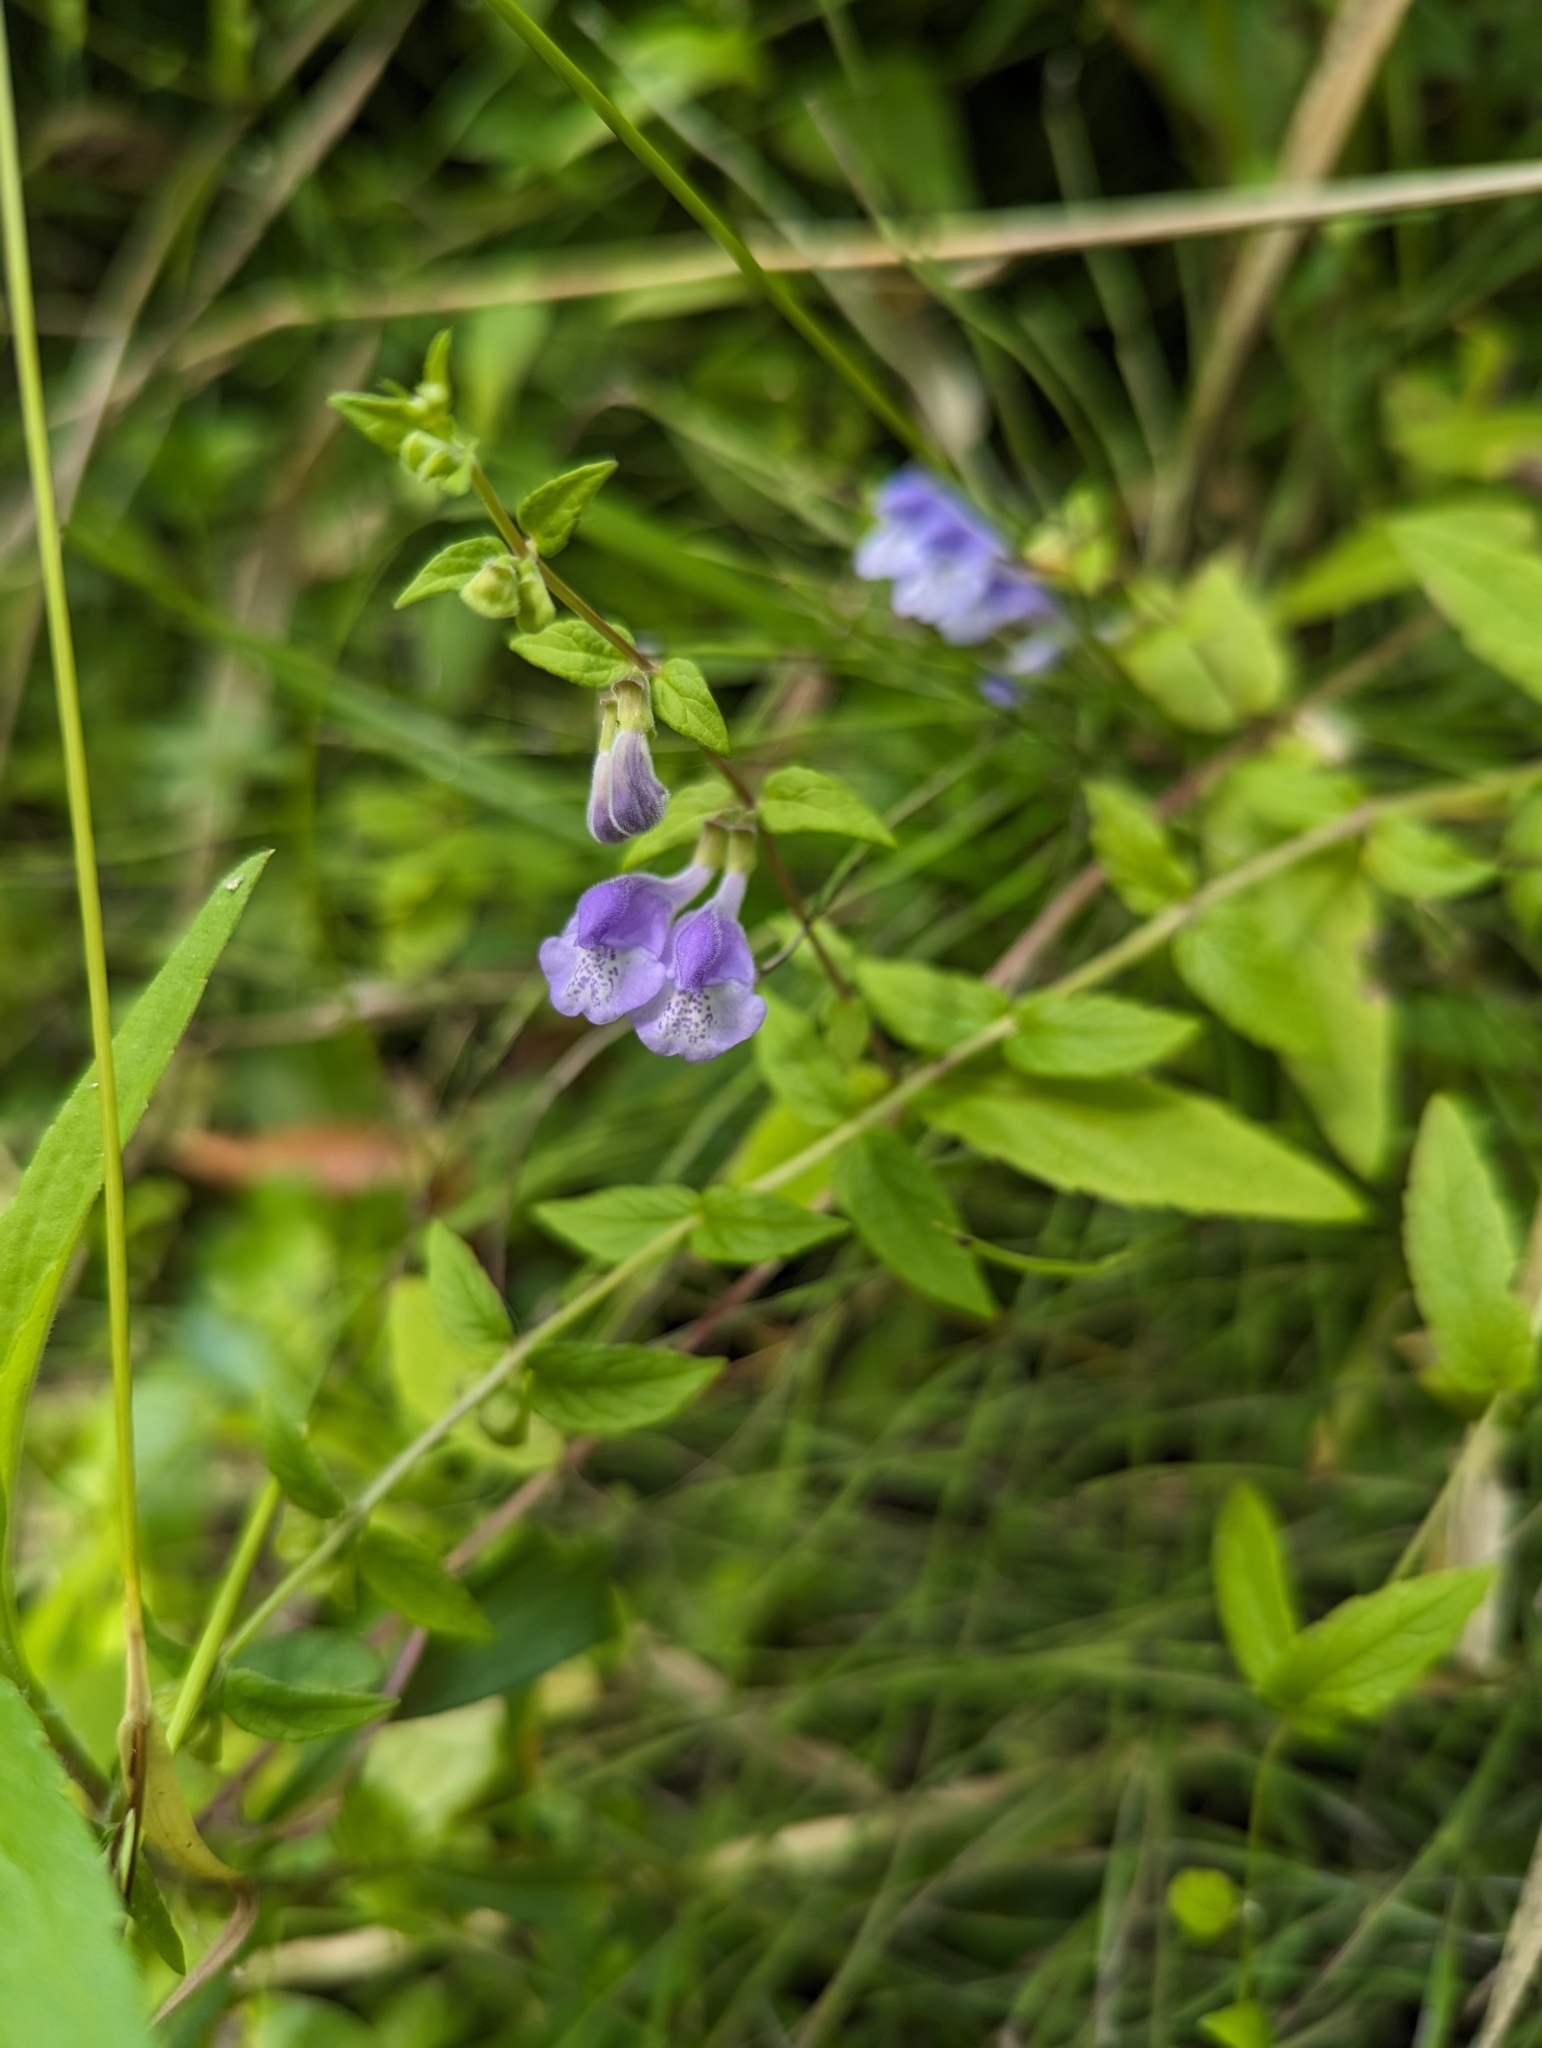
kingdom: Plantae
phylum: Tracheophyta
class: Magnoliopsida
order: Lamiales
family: Lamiaceae
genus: Scutellaria
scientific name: Scutellaria galericulata
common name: Skullcap
